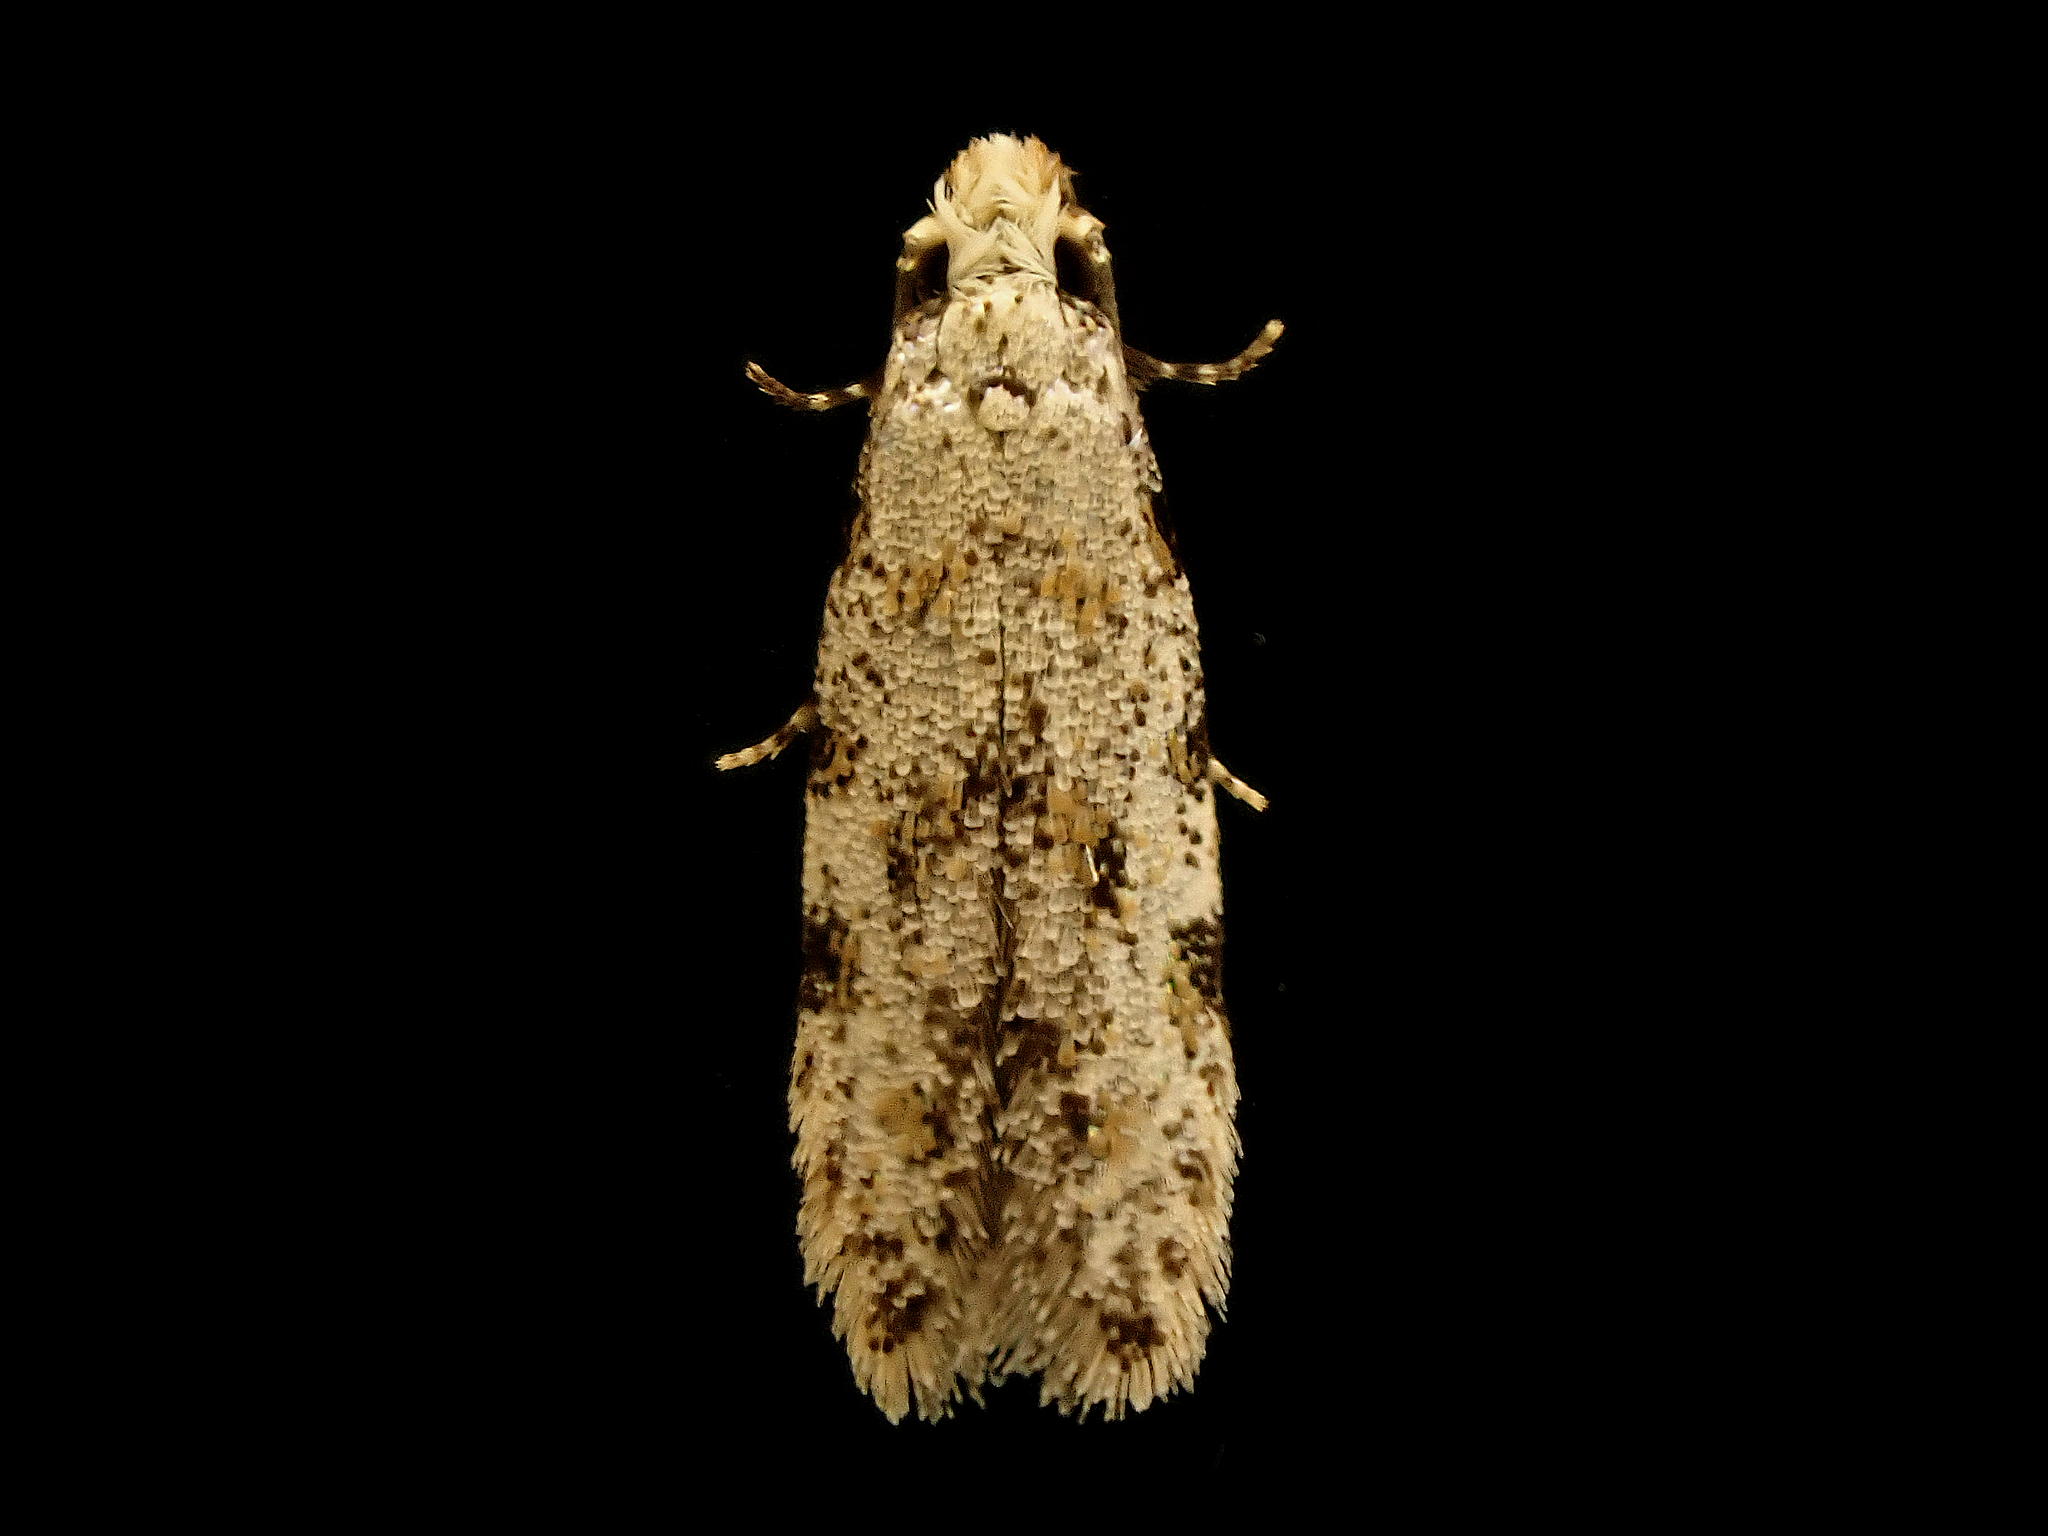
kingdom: Animalia
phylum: Arthropoda
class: Insecta
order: Lepidoptera
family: Tineidae
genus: Crypsitricha
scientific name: Crypsitricha stereota
